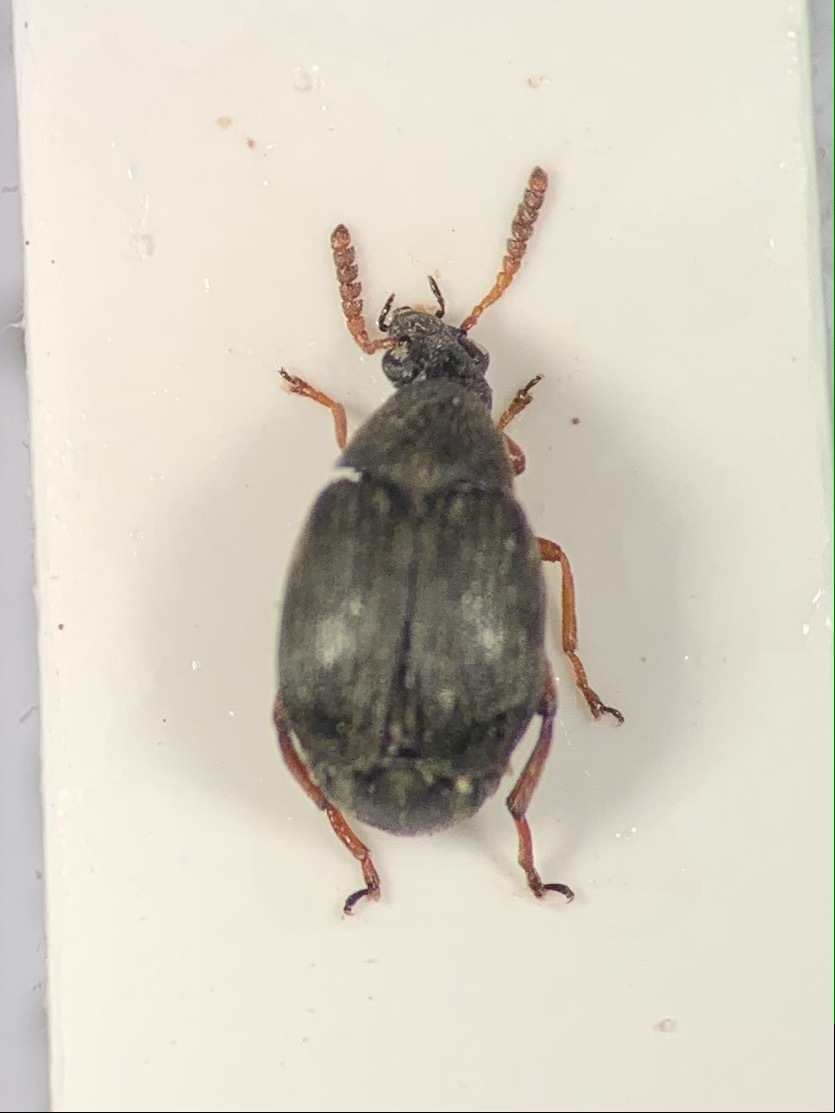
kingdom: Animalia
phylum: Arthropoda
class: Insecta
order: Coleoptera
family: Chrysomelidae
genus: Bruchidius
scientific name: Bruchidius seminarius
